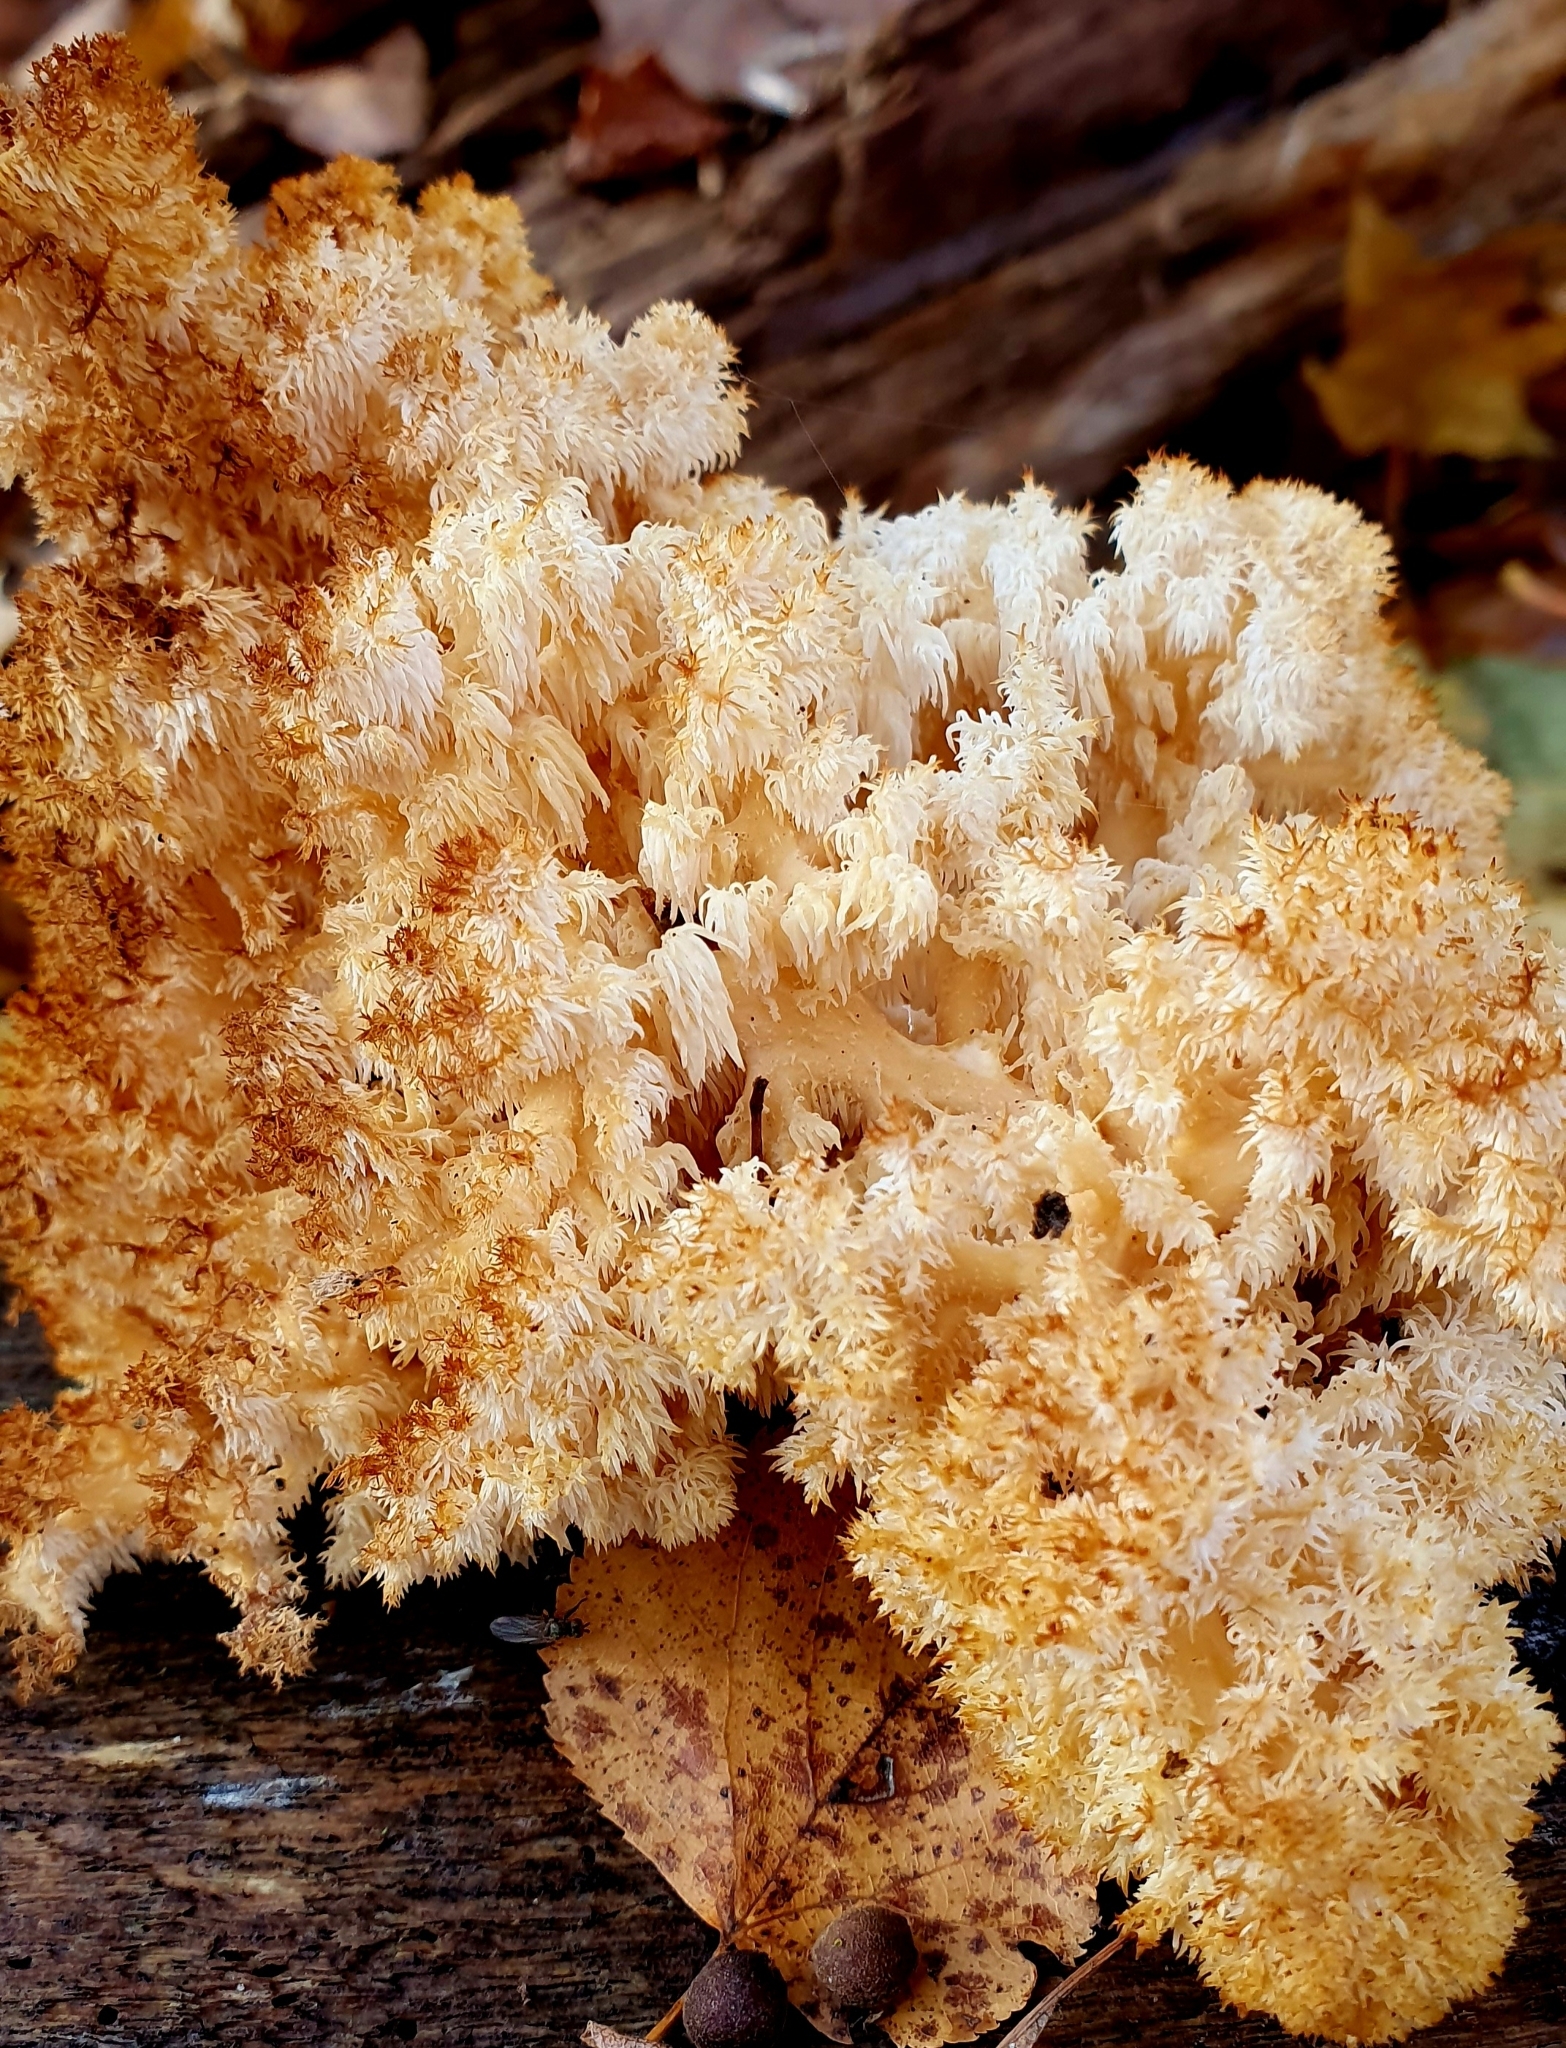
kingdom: Fungi
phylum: Basidiomycota
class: Agaricomycetes
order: Russulales
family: Hericiaceae
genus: Hericium
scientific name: Hericium coralloides
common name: Coral tooth
